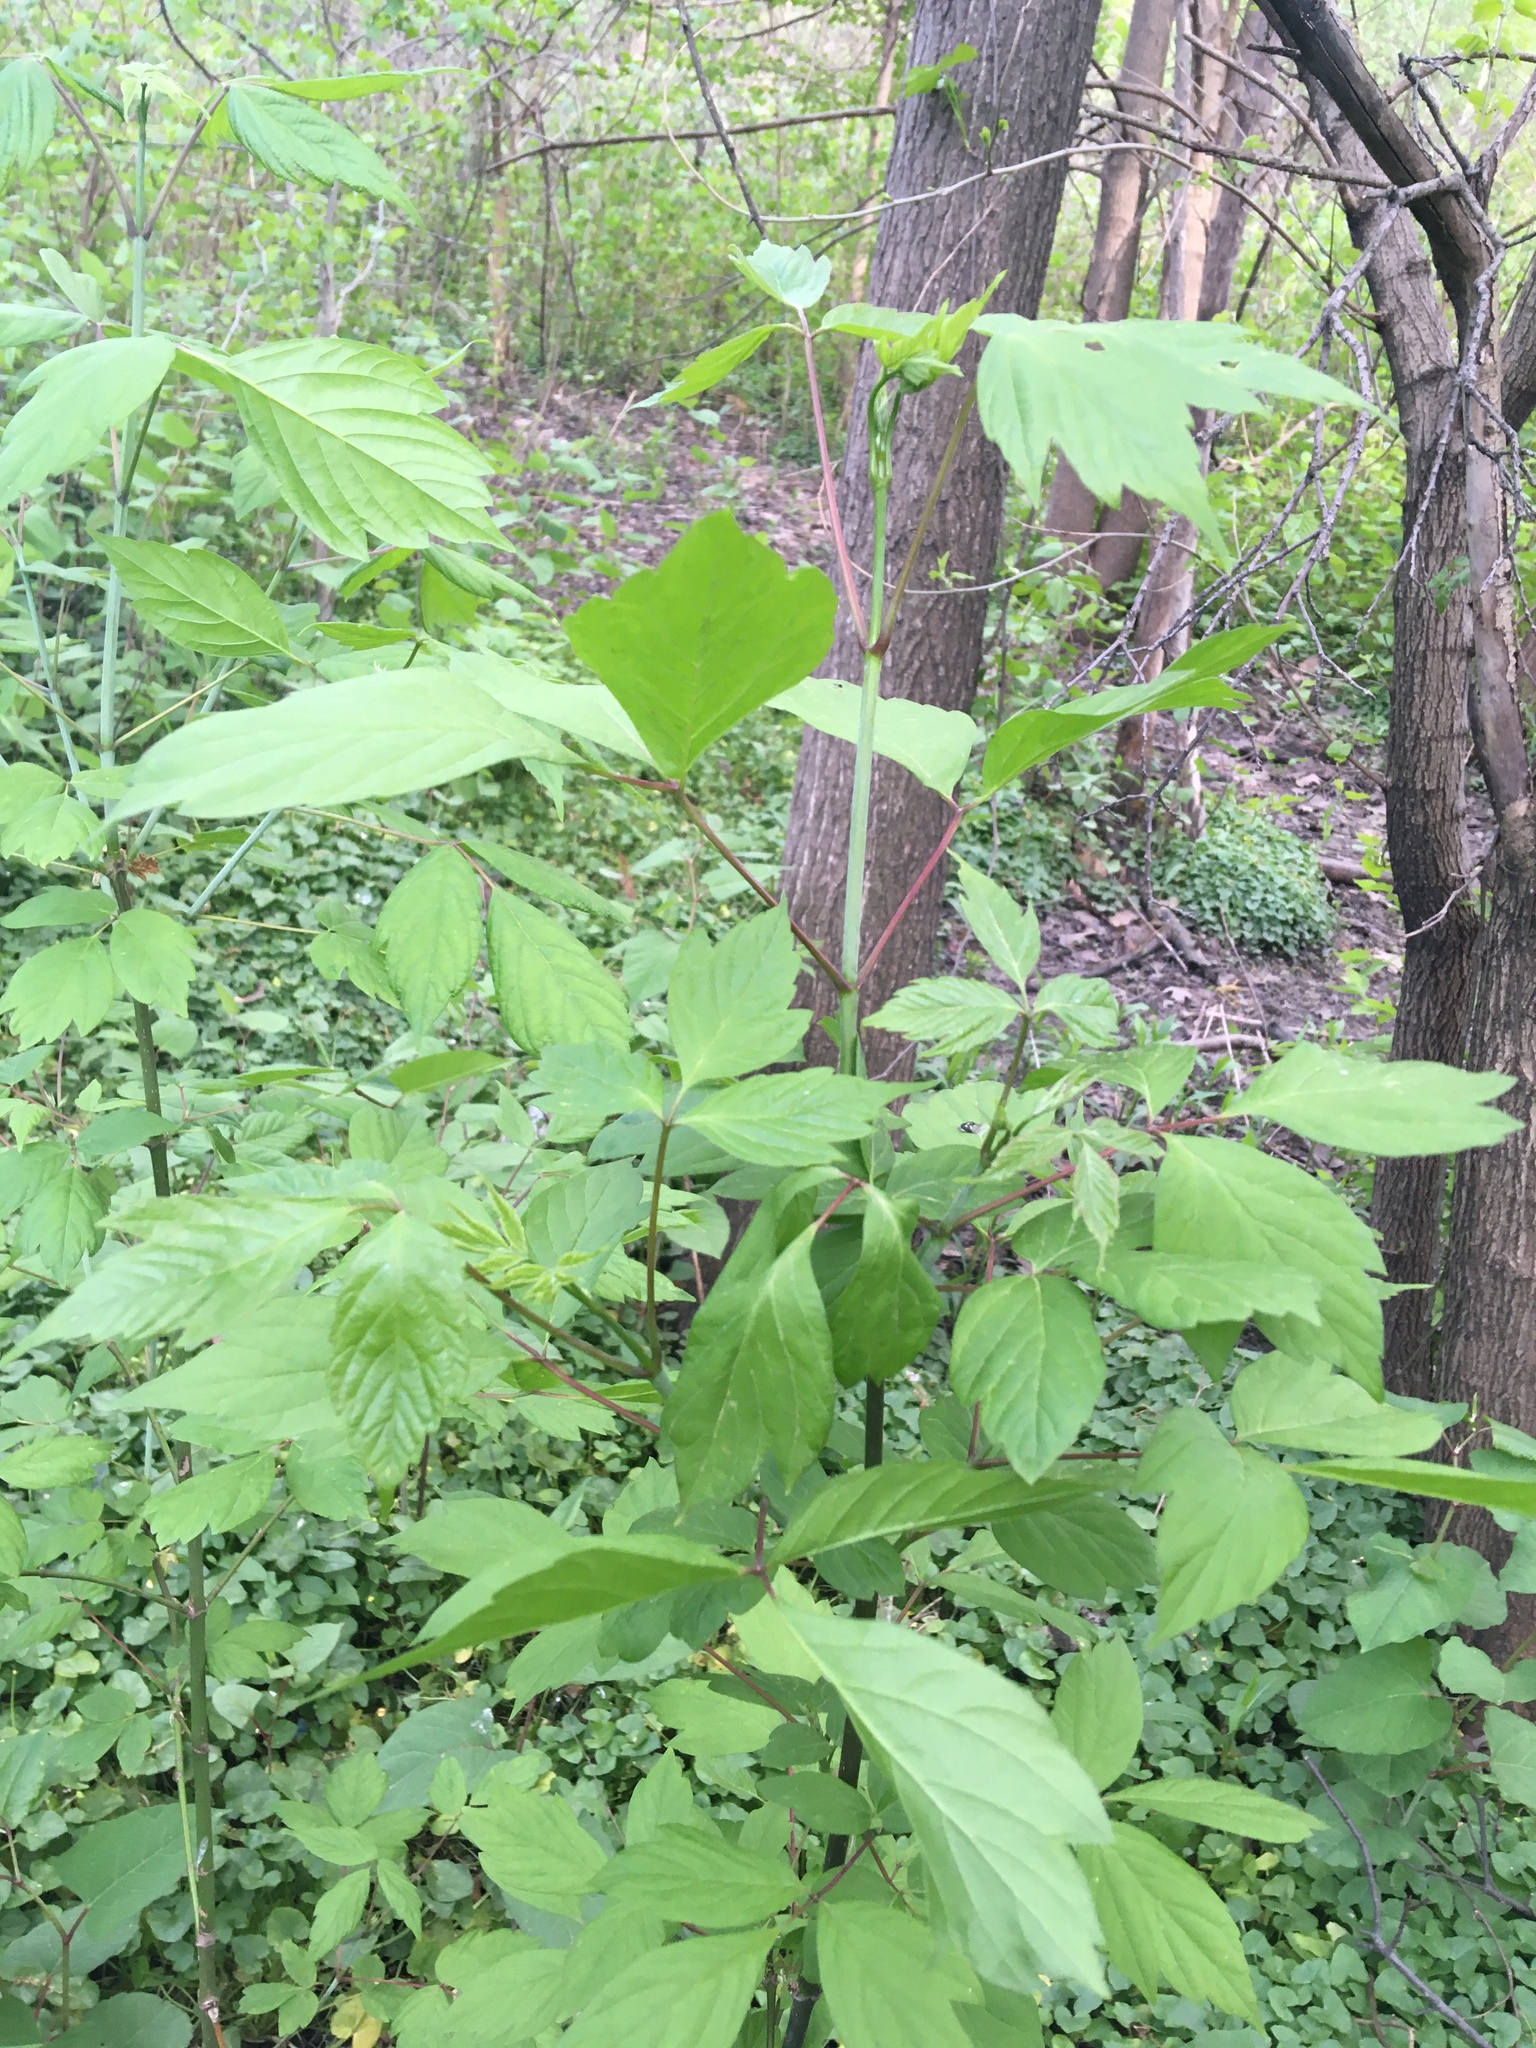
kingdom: Plantae
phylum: Tracheophyta
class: Magnoliopsida
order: Sapindales
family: Sapindaceae
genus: Acer
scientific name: Acer negundo
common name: Ashleaf maple
